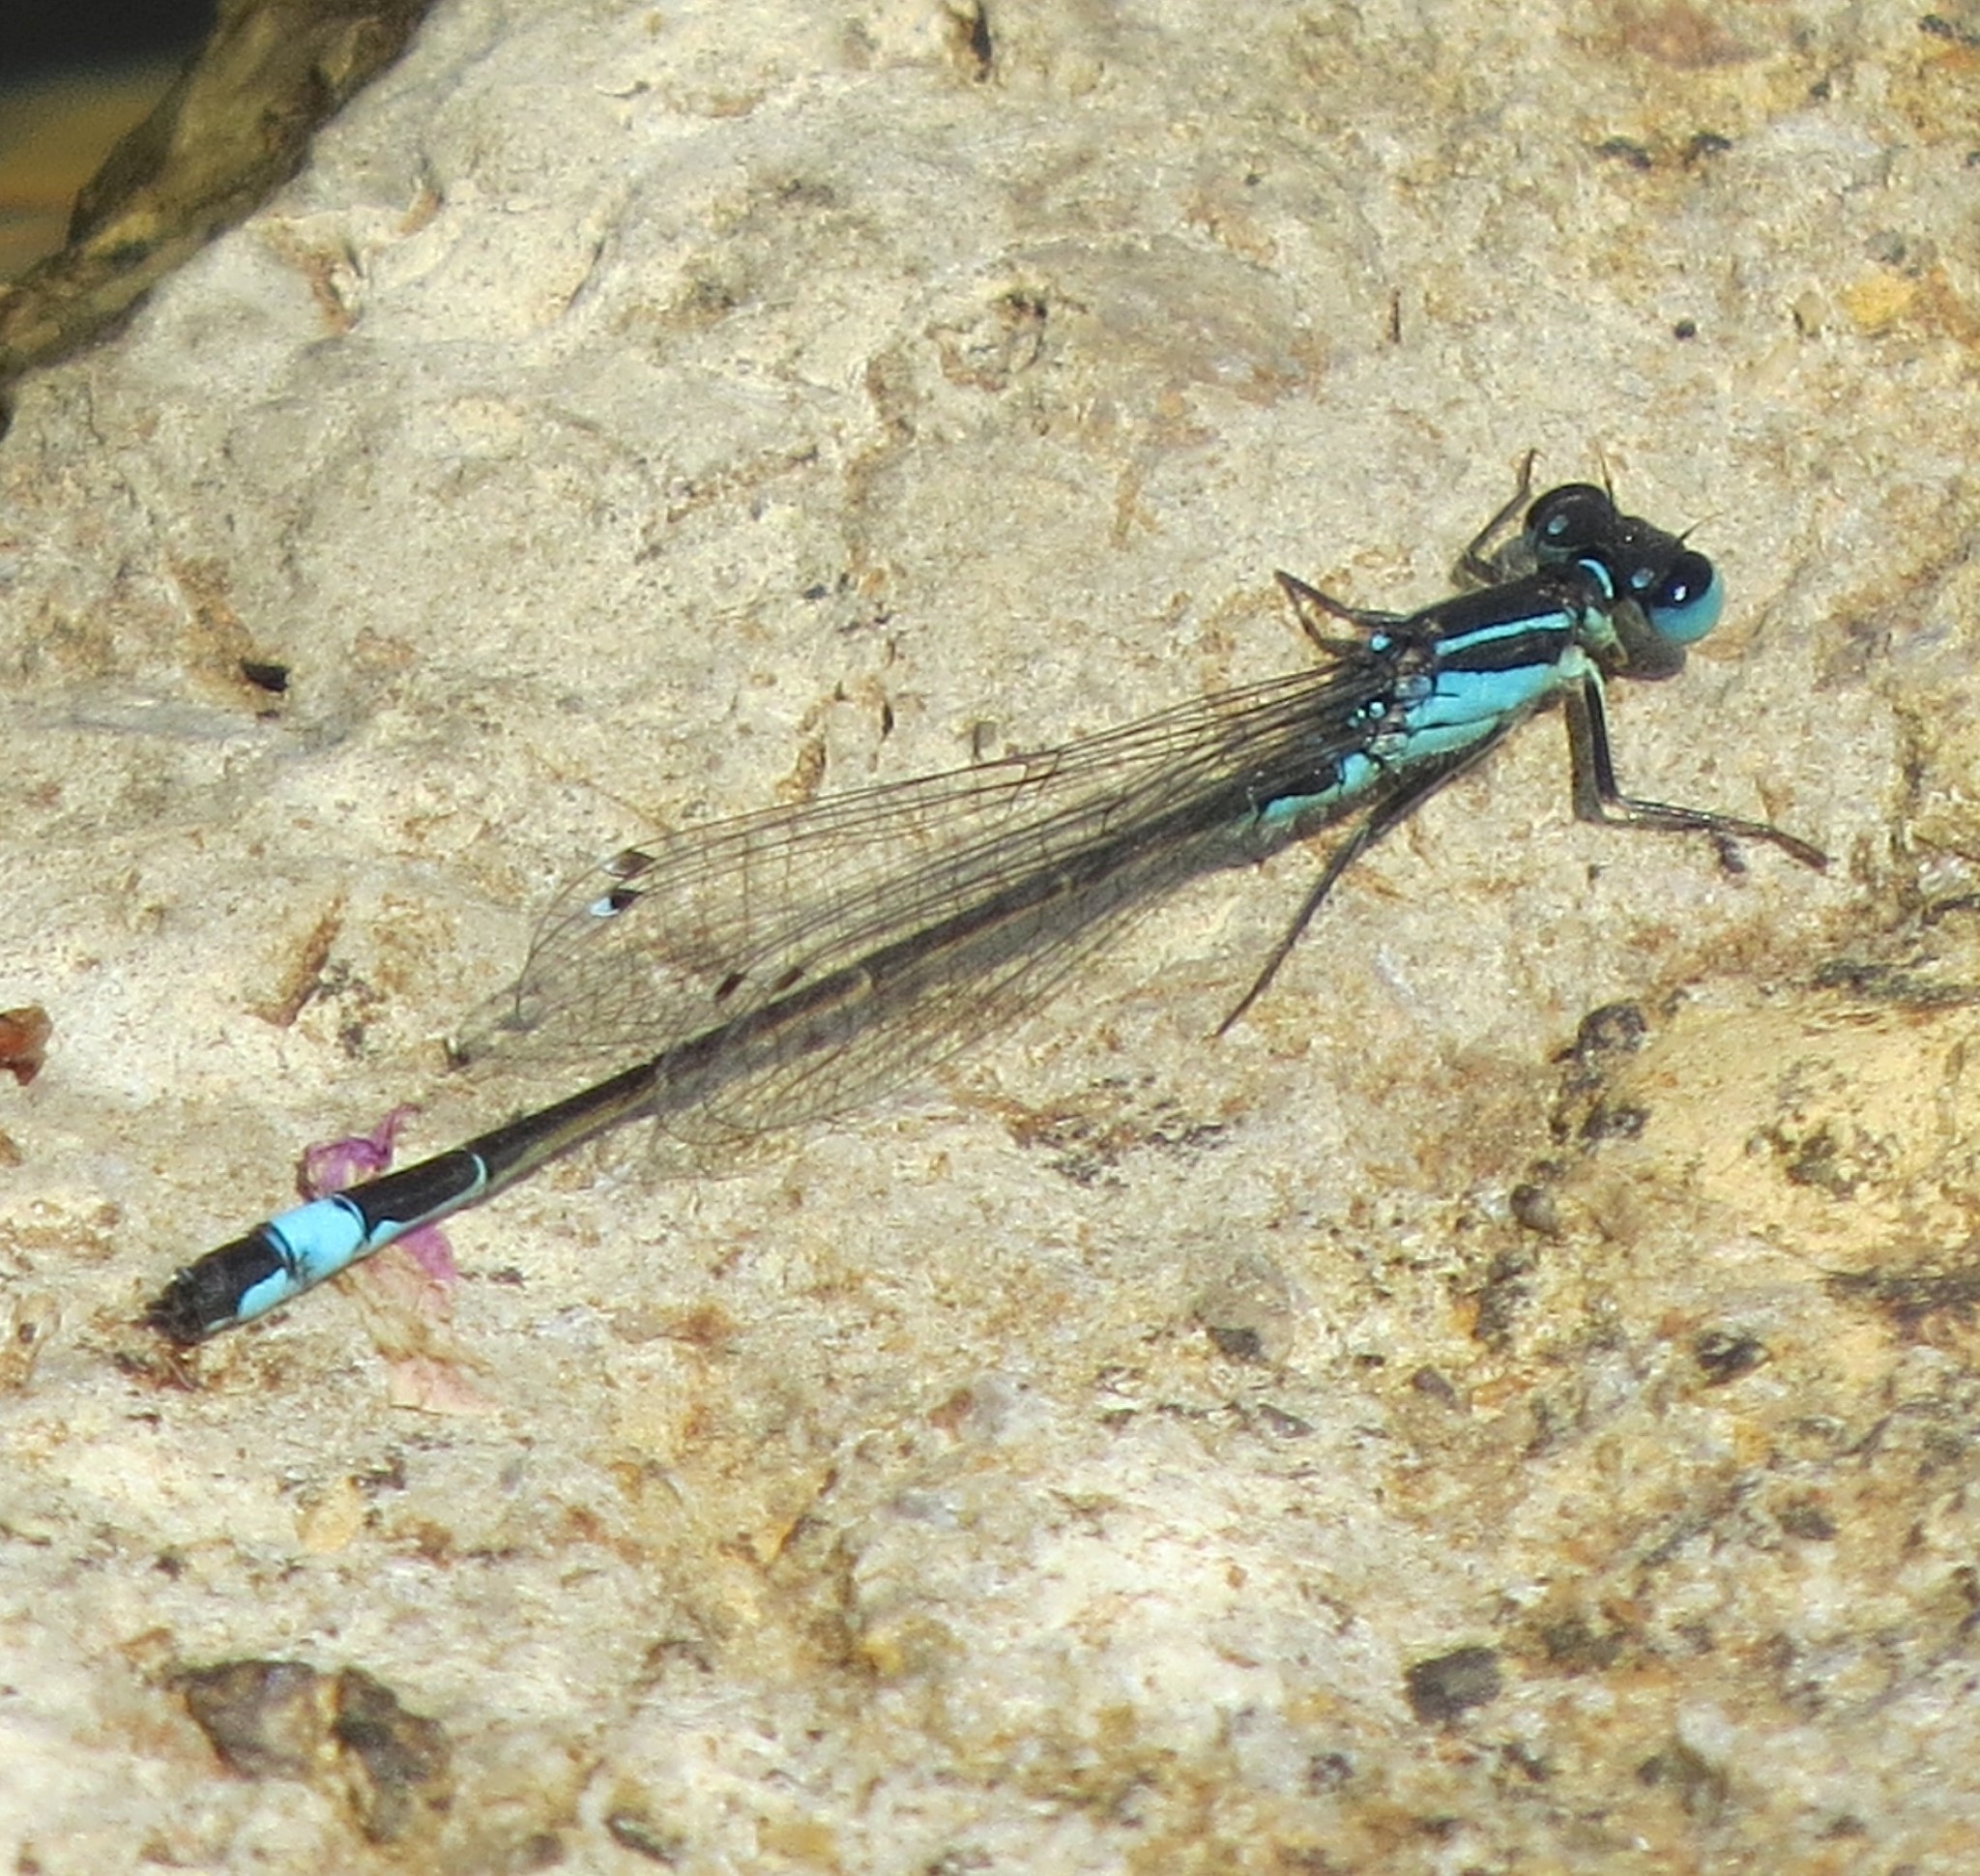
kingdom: Animalia
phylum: Arthropoda
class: Insecta
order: Odonata
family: Coenagrionidae
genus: Ischnura
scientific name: Ischnura elegans
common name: Blue-tailed damselfly
